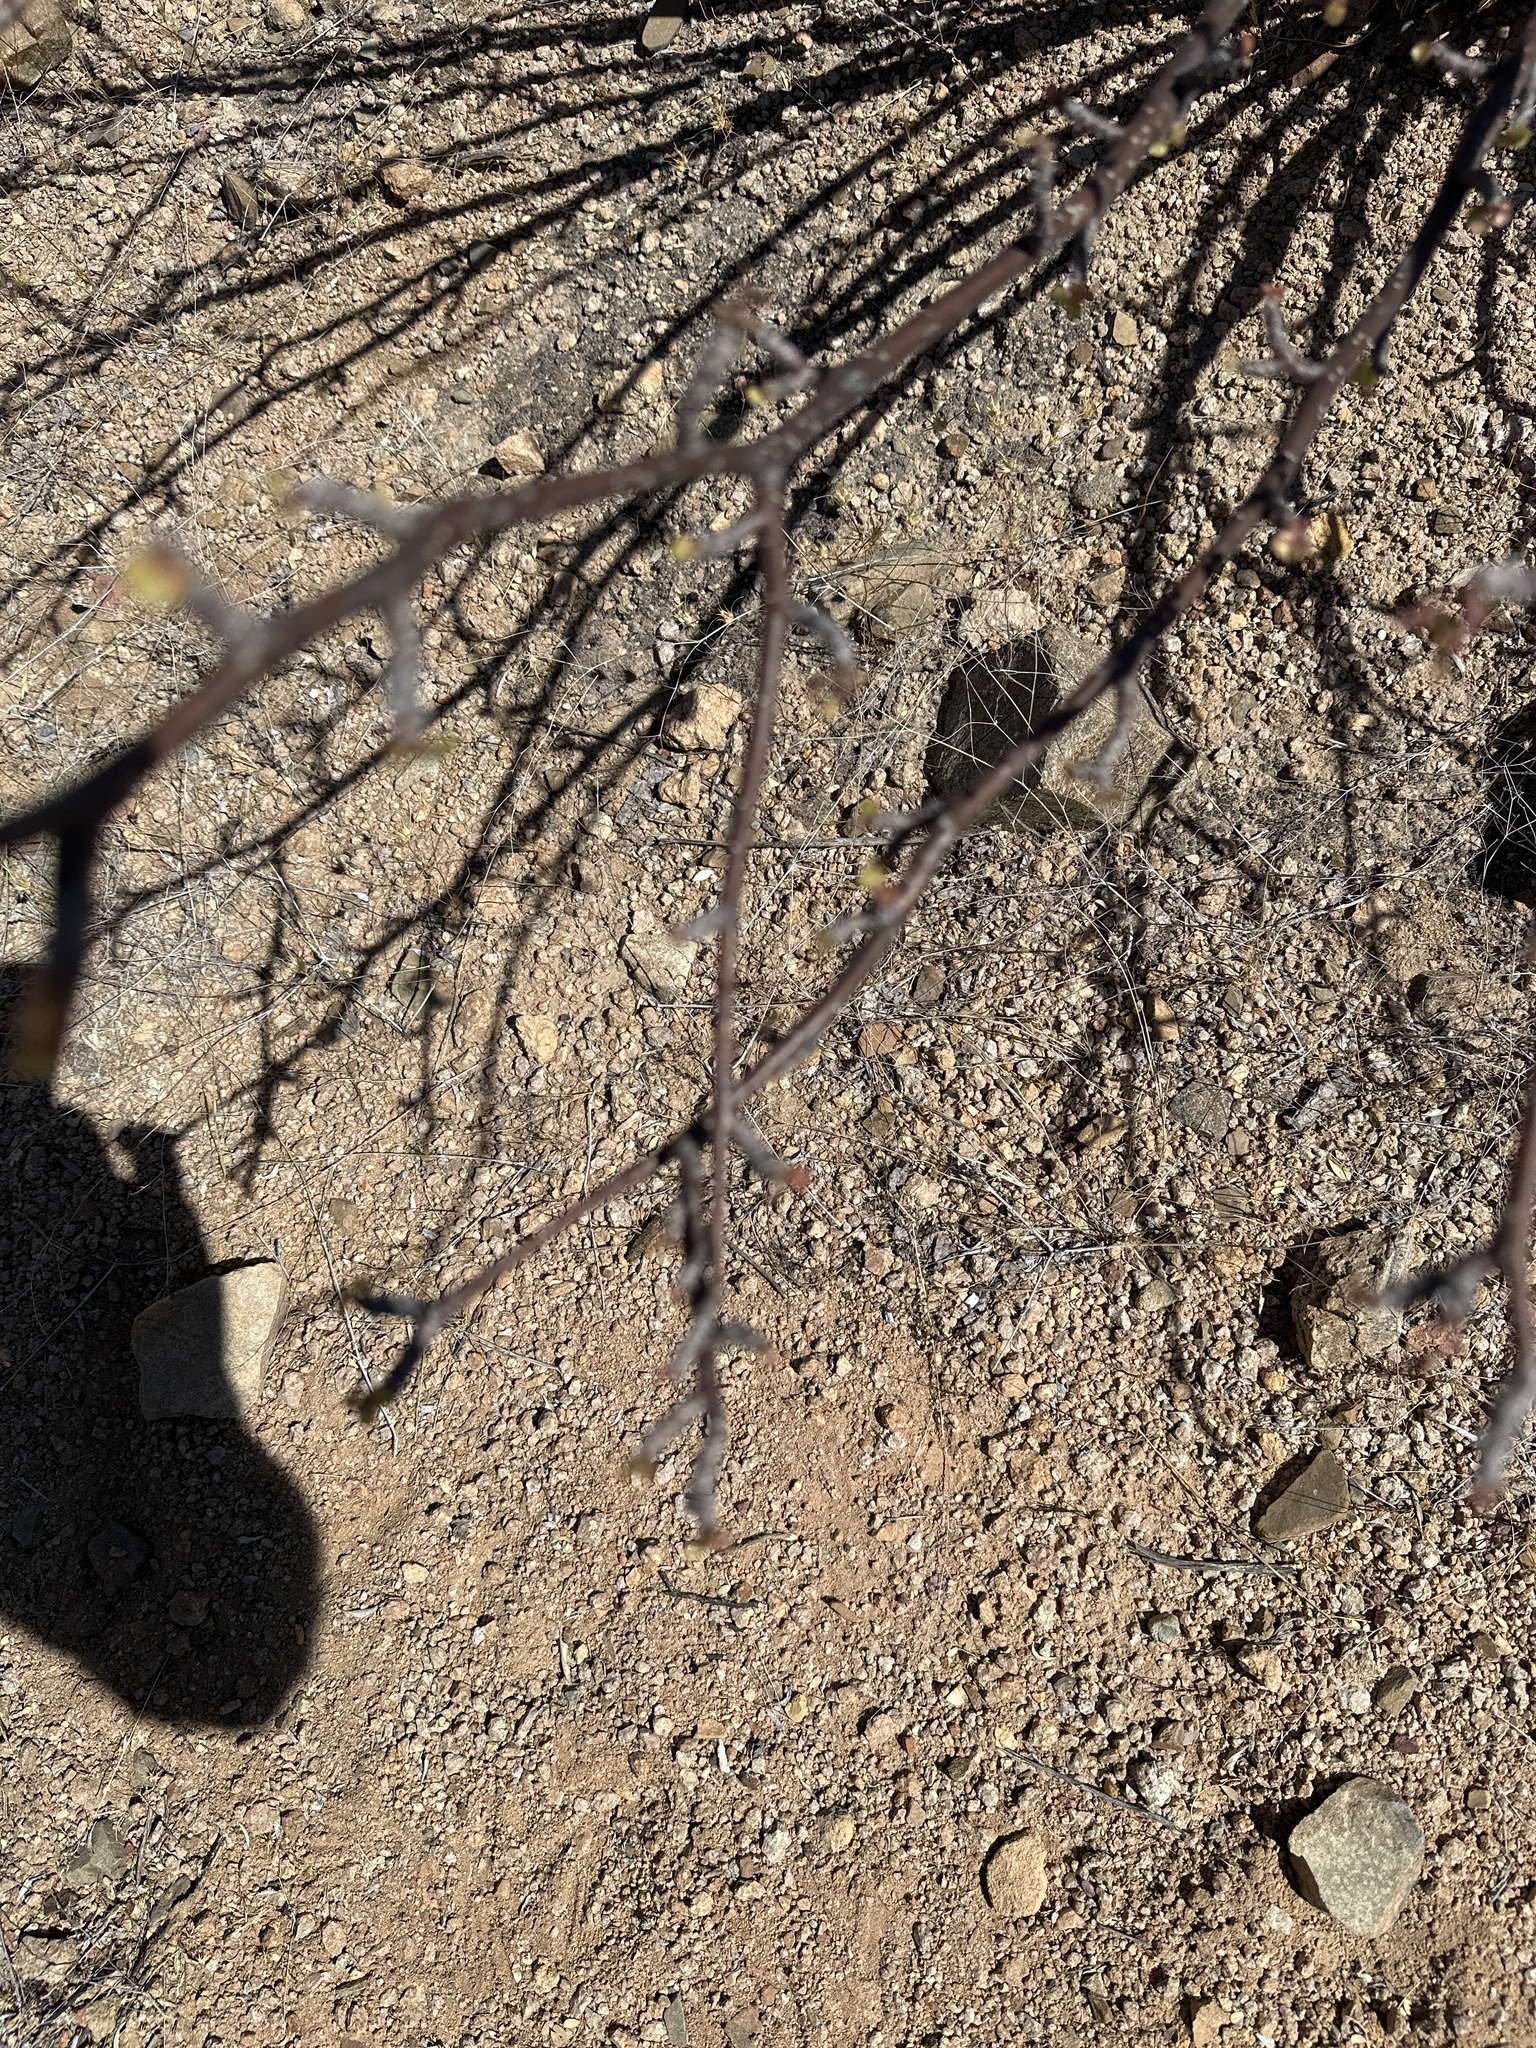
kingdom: Plantae
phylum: Tracheophyta
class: Magnoliopsida
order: Malpighiales
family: Euphorbiaceae
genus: Jatropha
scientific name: Jatropha cardiophylla
